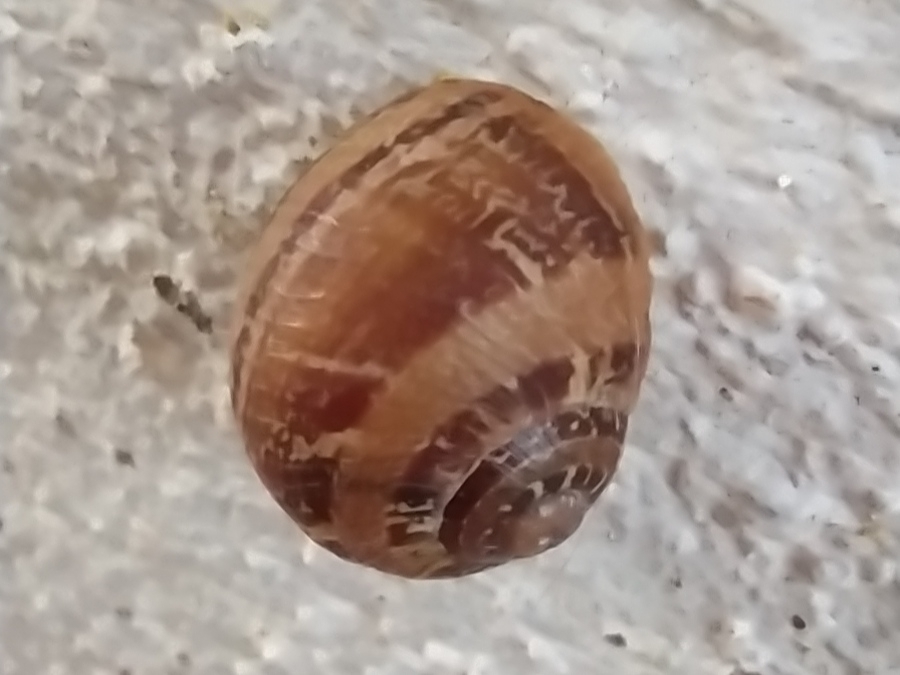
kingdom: Animalia
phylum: Mollusca
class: Gastropoda
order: Stylommatophora
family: Helicidae
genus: Cornu
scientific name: Cornu aspersum
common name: Brown garden snail
